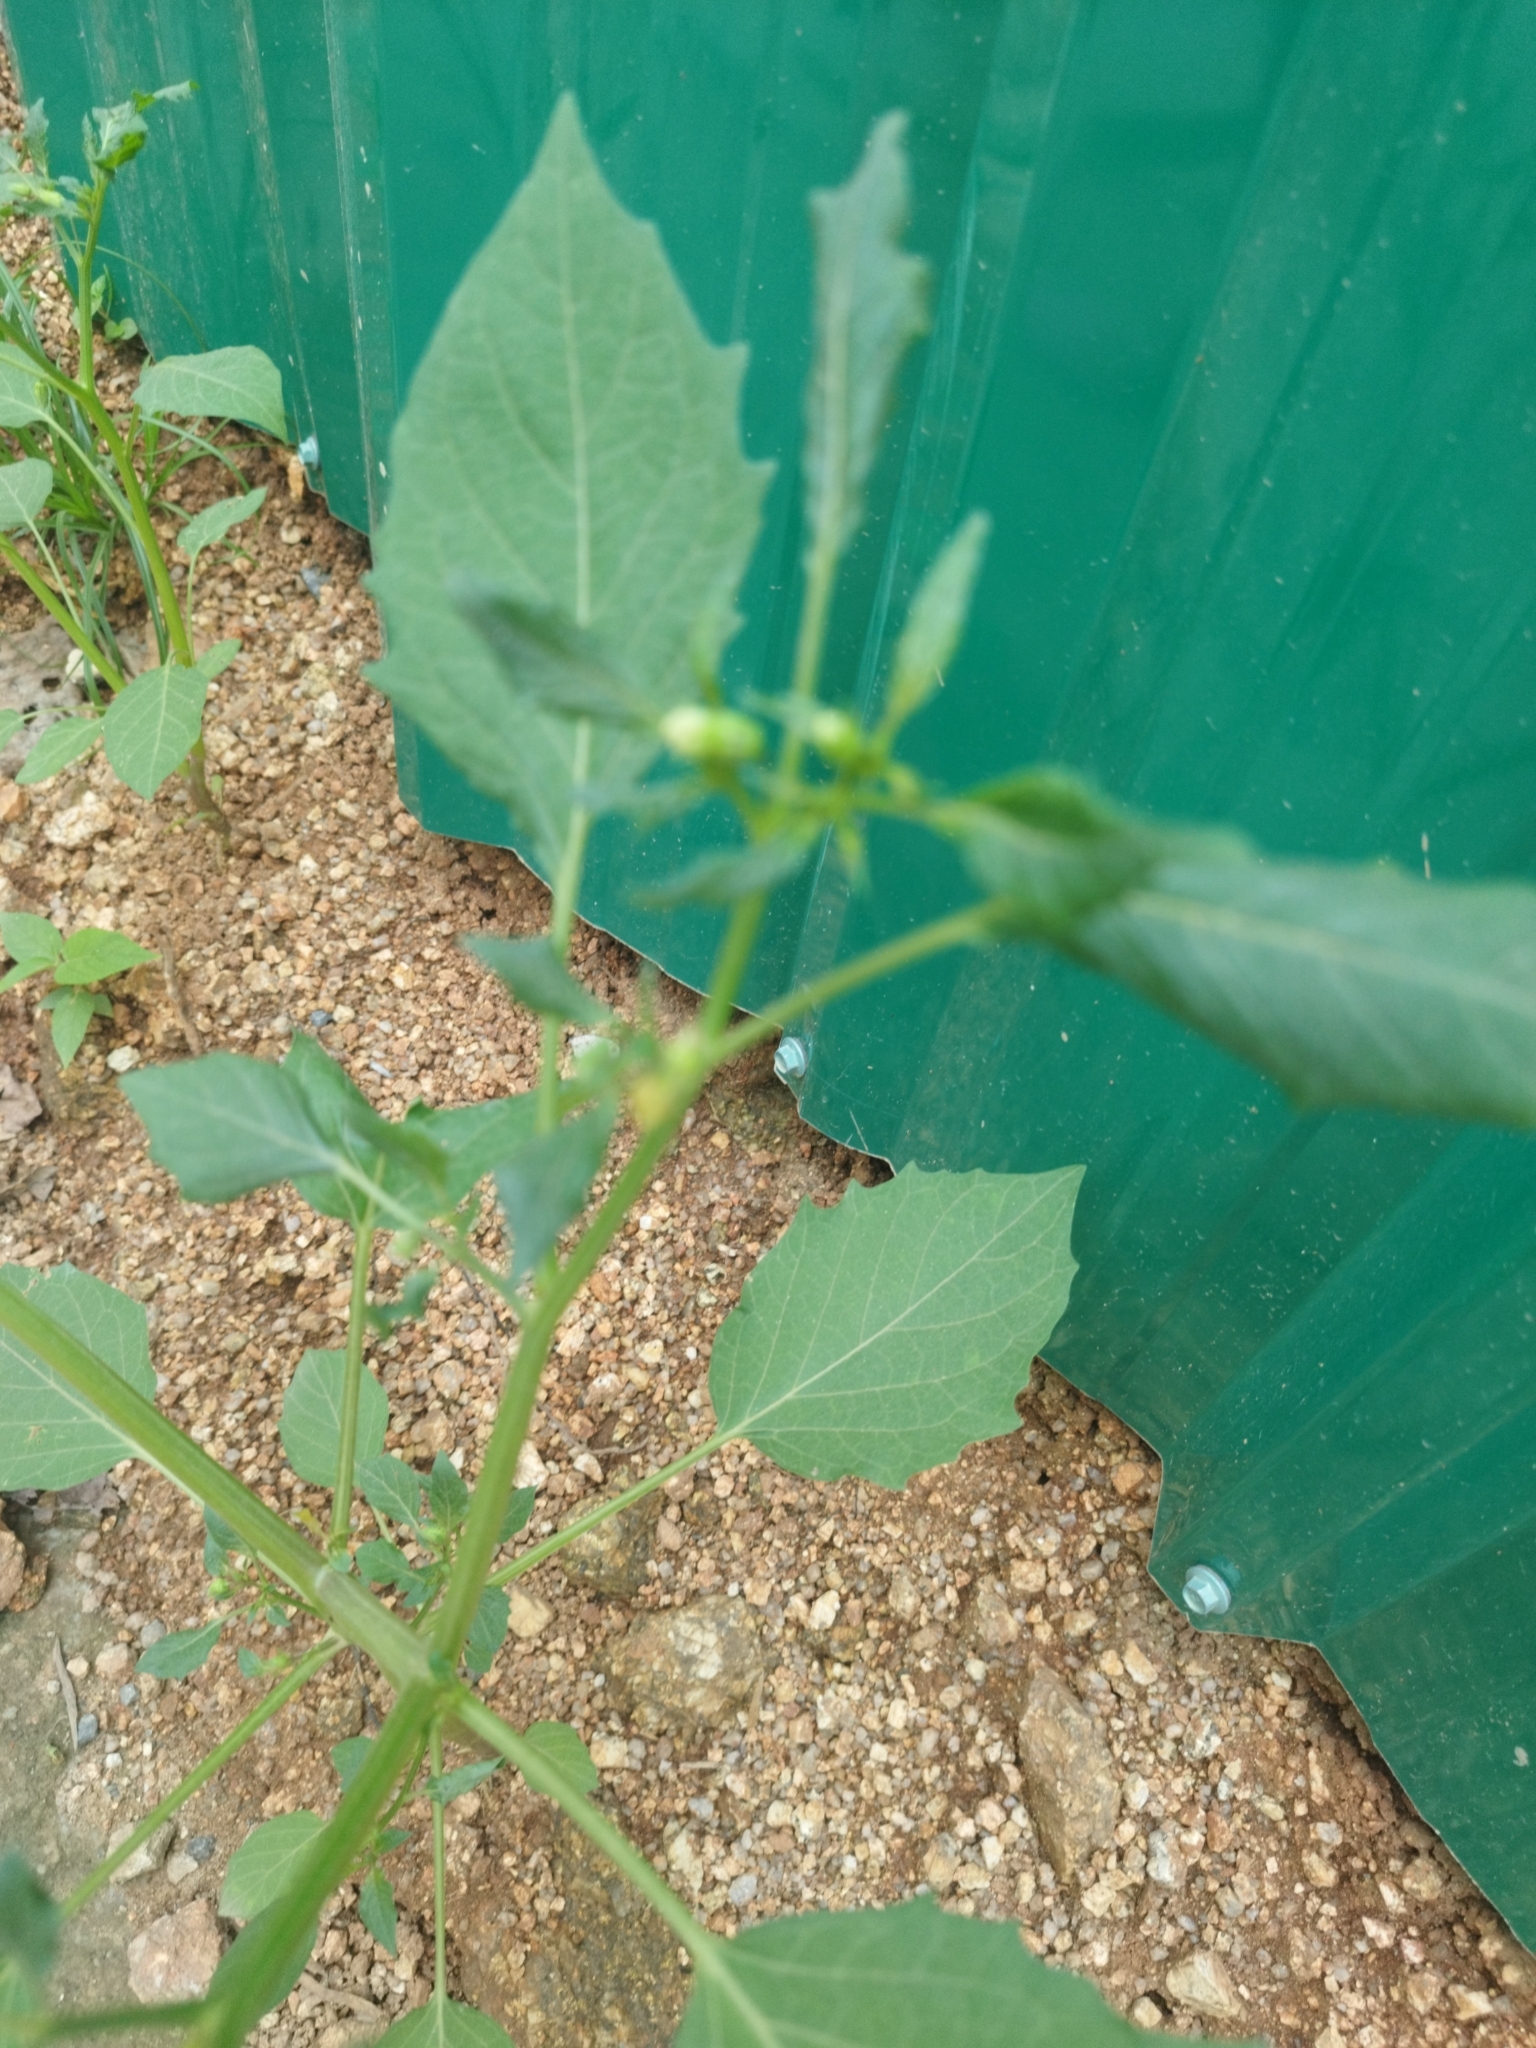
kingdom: Plantae
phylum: Tracheophyta
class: Magnoliopsida
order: Solanales
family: Solanaceae
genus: Physalis
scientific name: Physalis angulata
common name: Angular winter-cherry
